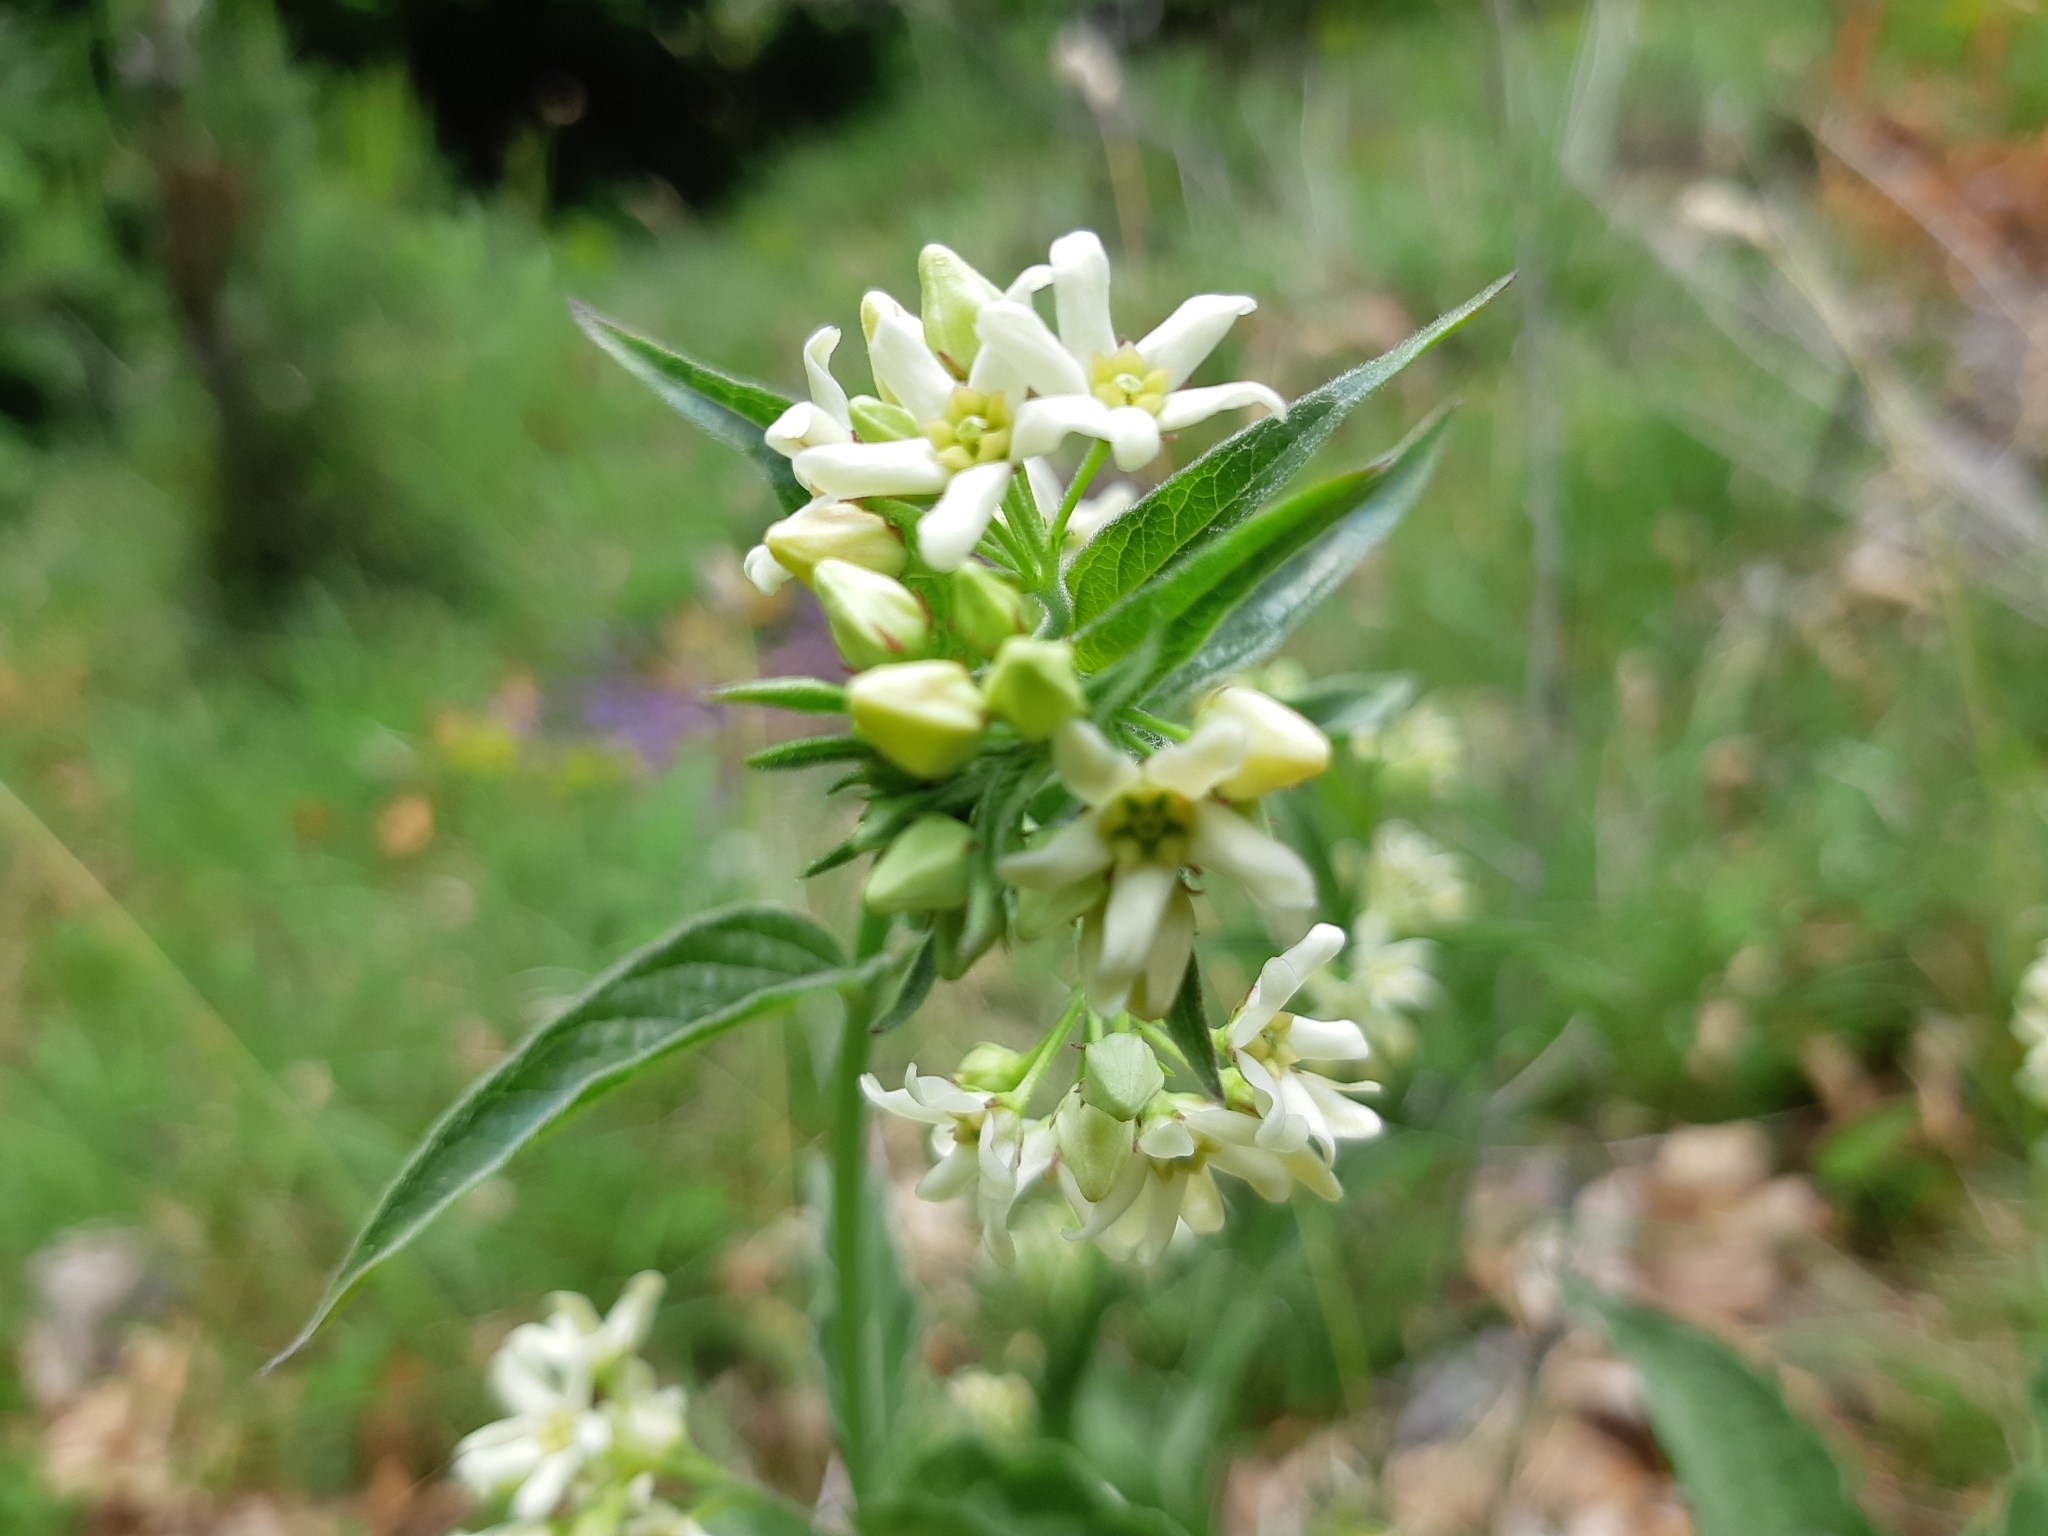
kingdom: Plantae
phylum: Tracheophyta
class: Magnoliopsida
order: Gentianales
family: Apocynaceae
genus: Vincetoxicum
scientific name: Vincetoxicum hirundinaria
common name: White swallowwort
